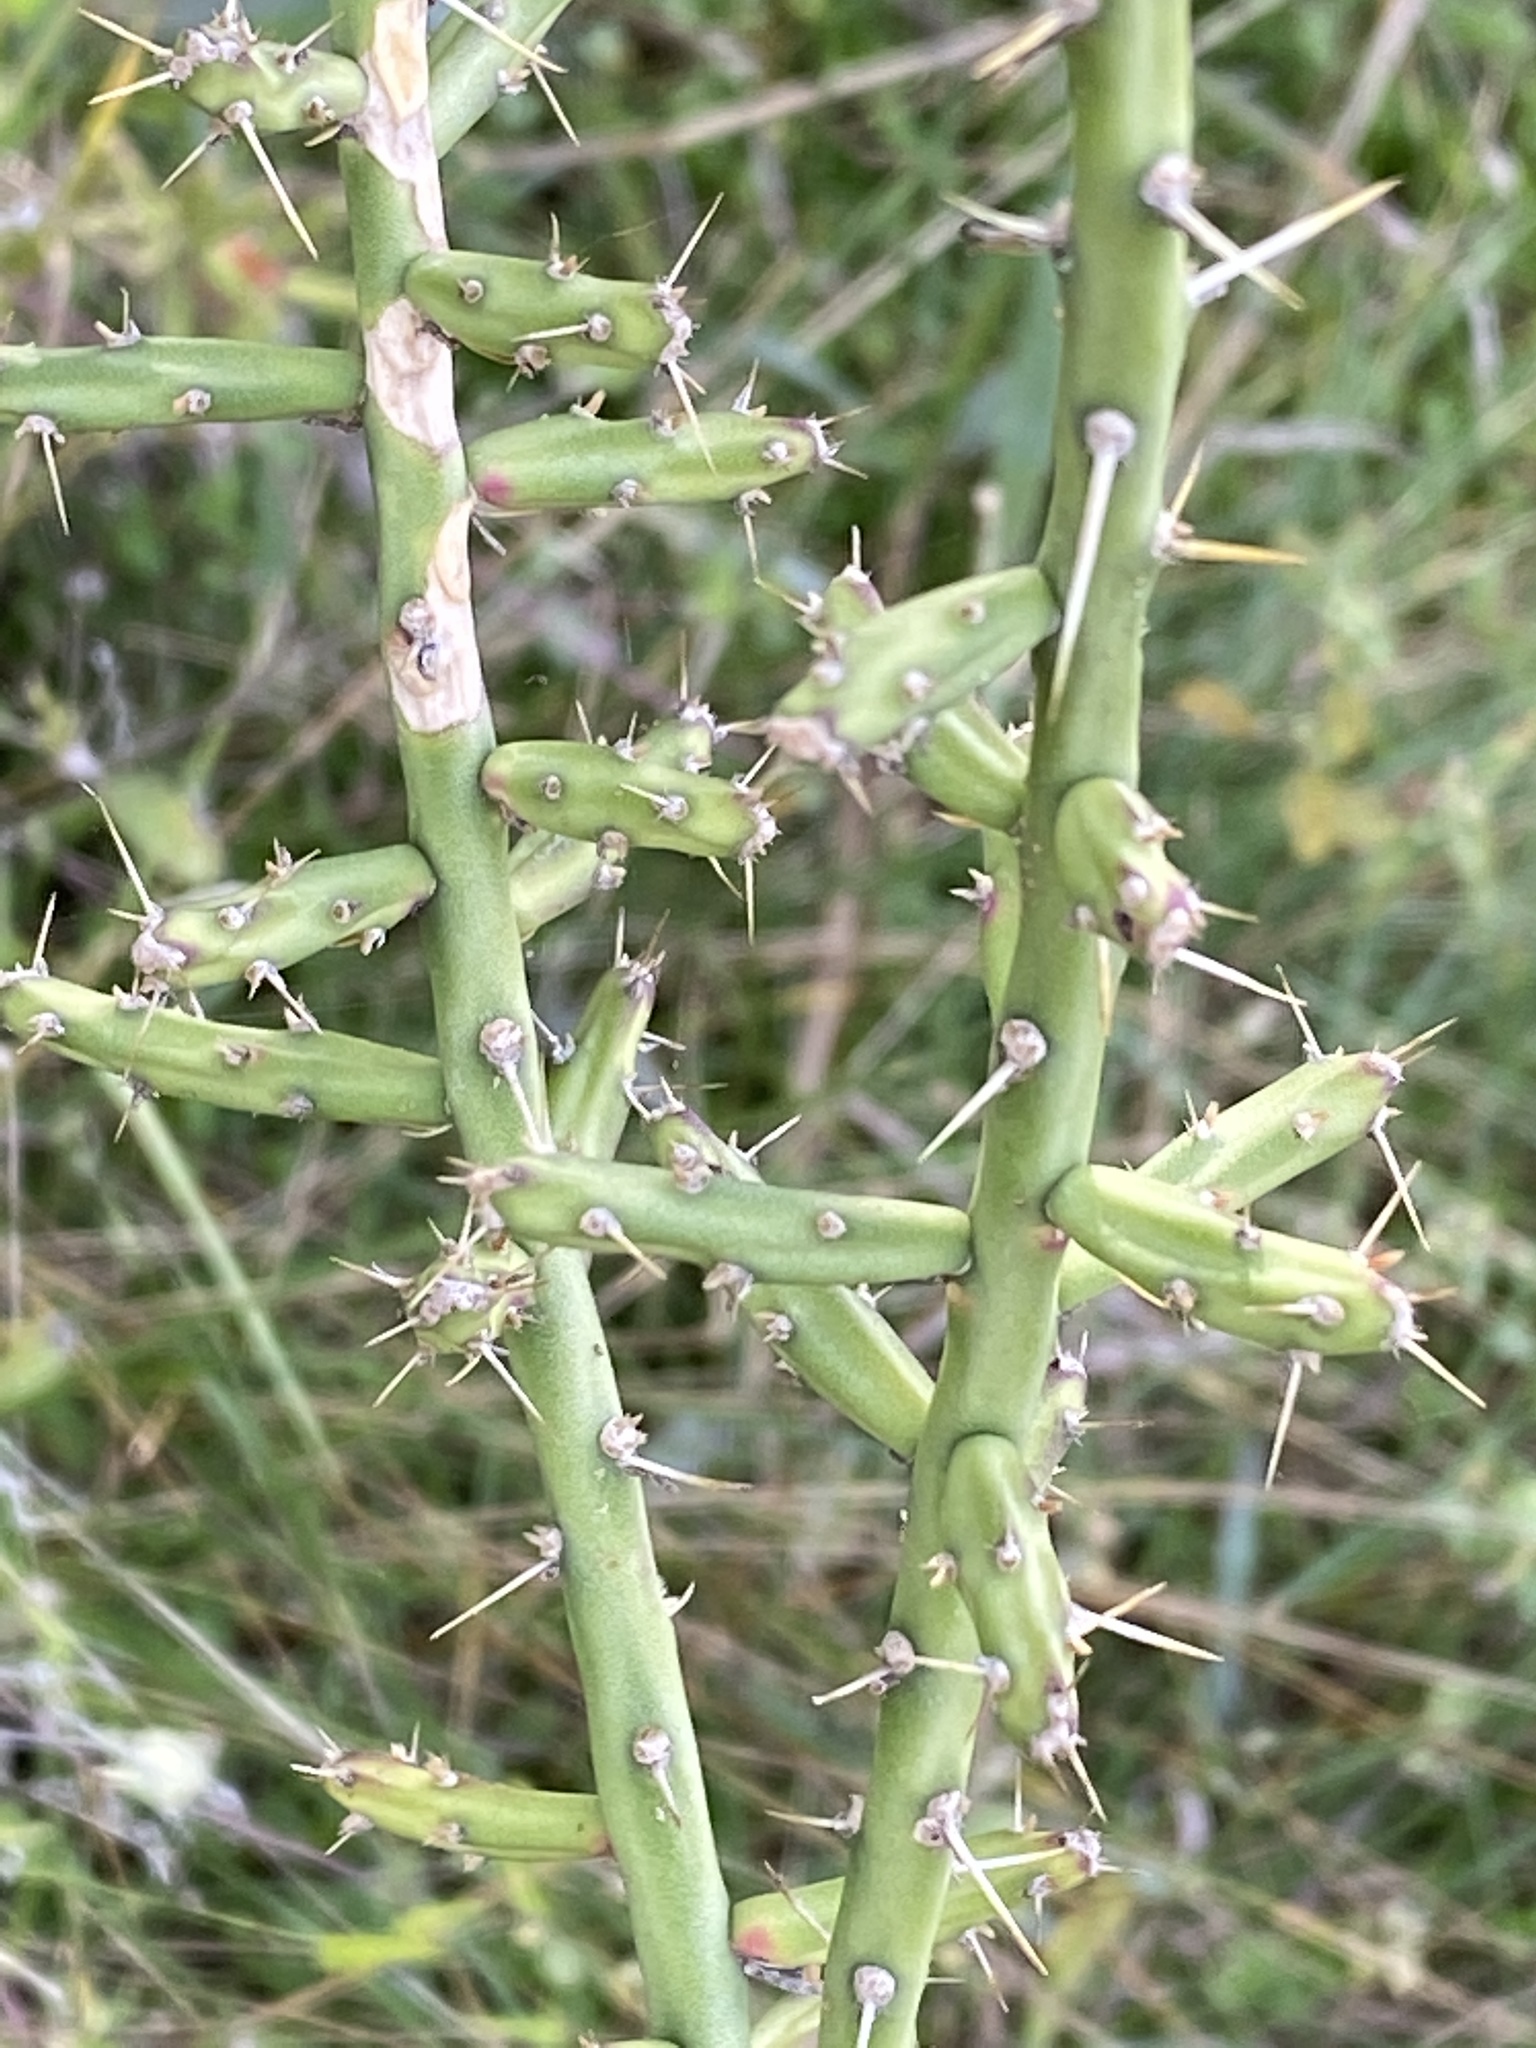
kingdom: Plantae
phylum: Tracheophyta
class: Magnoliopsida
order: Caryophyllales
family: Cactaceae
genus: Cylindropuntia
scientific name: Cylindropuntia leptocaulis
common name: Christmas cactus
